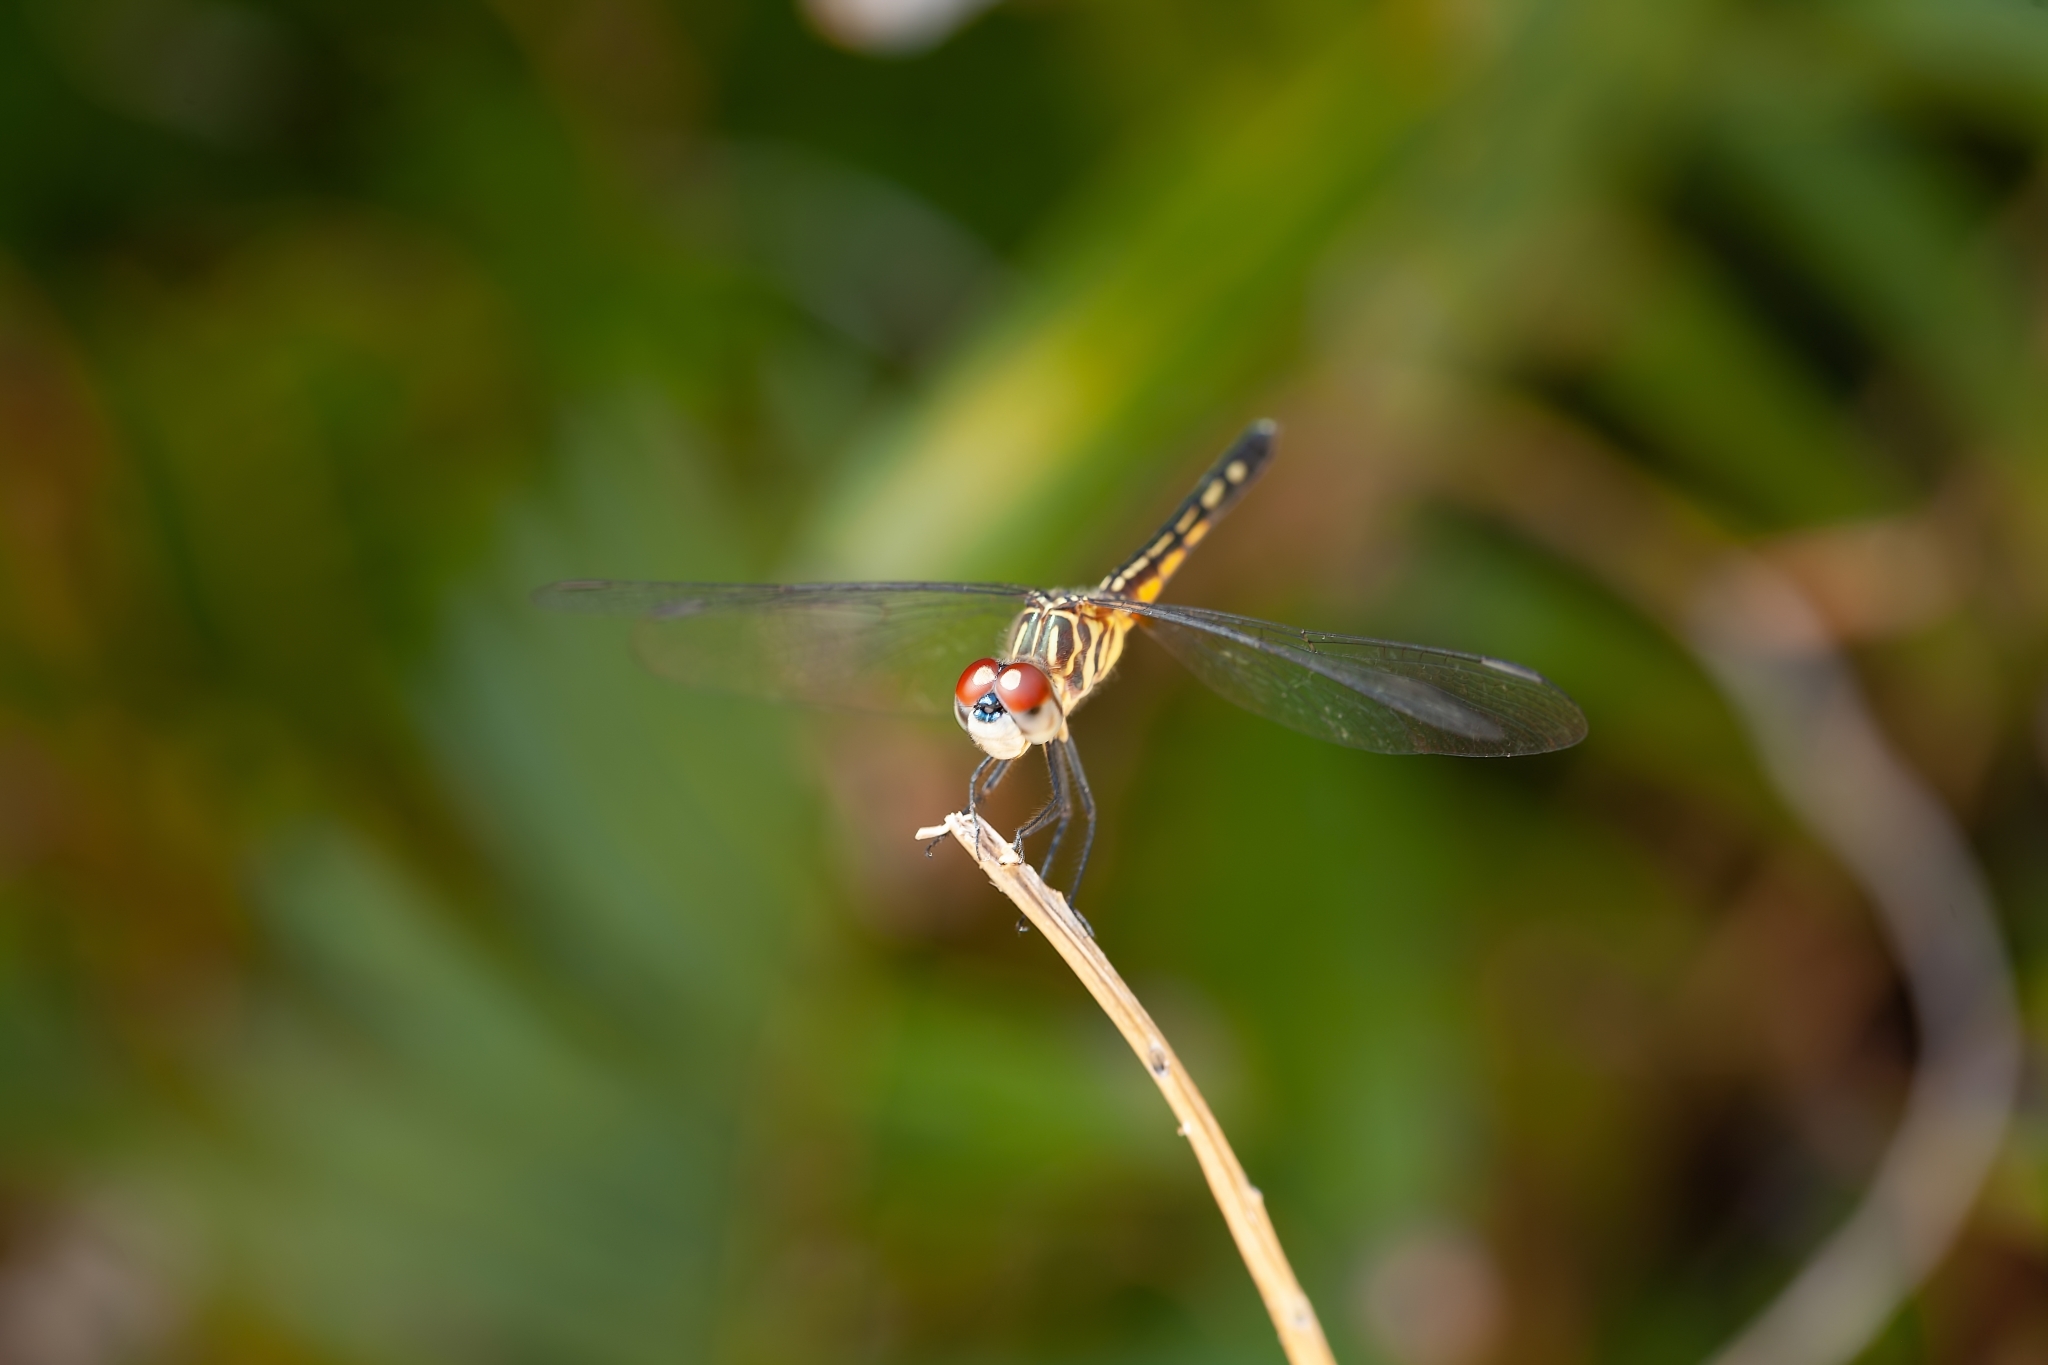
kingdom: Animalia
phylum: Arthropoda
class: Insecta
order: Odonata
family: Libellulidae
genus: Pachydiplax
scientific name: Pachydiplax longipennis
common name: Blue dasher
